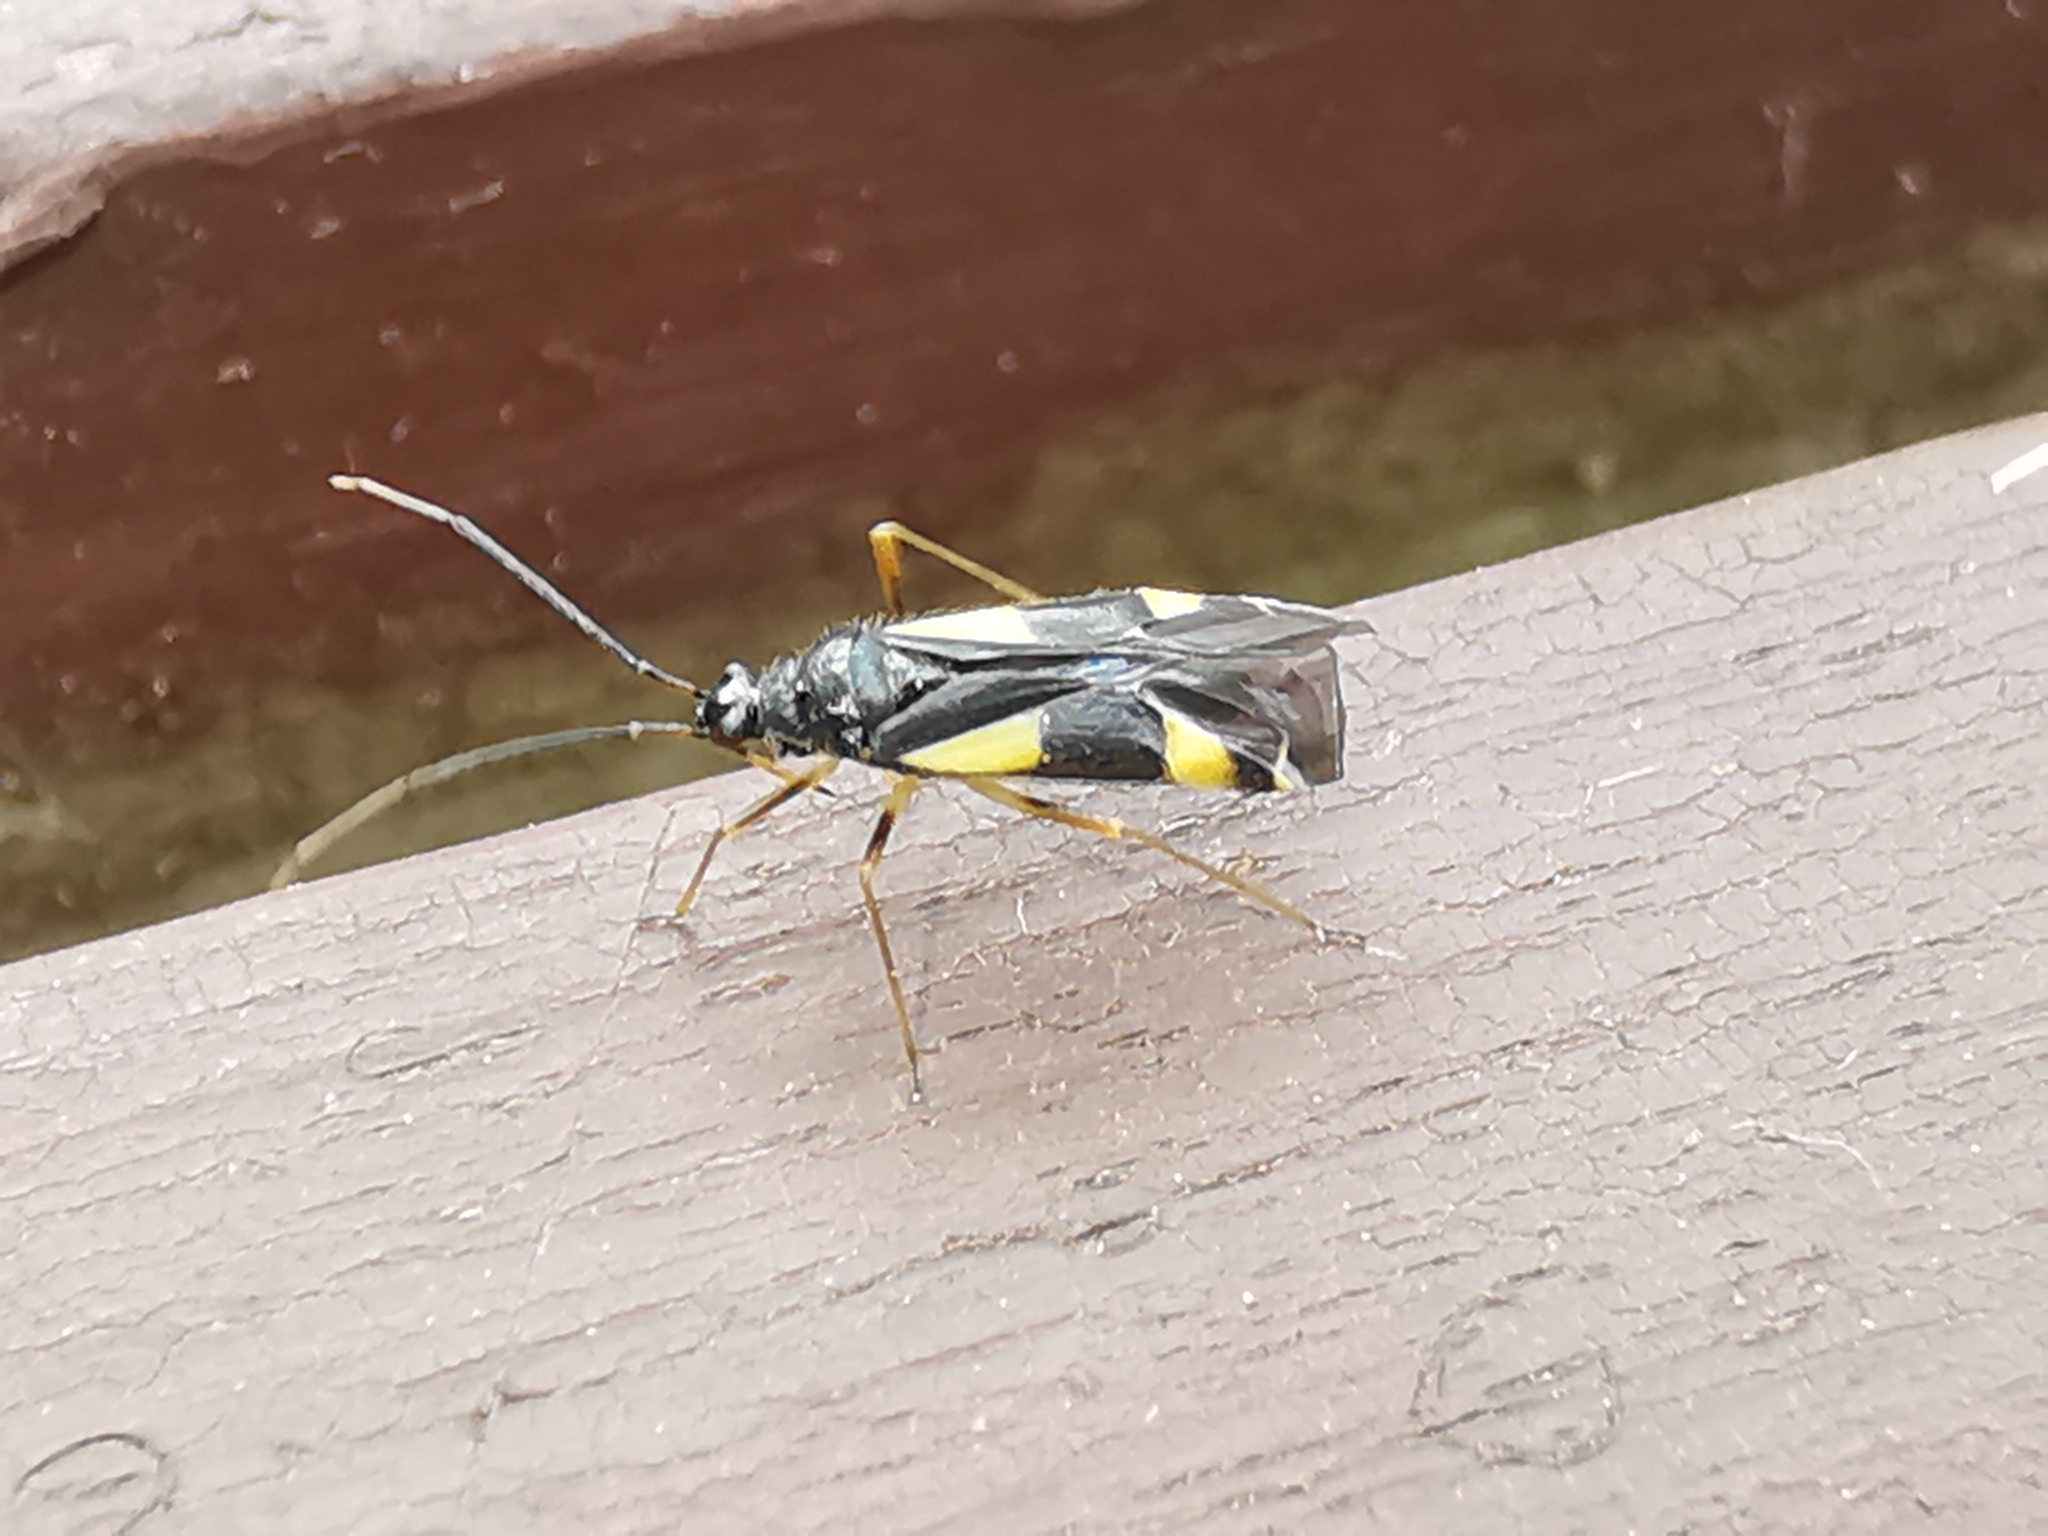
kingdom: Animalia
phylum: Arthropoda
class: Insecta
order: Hemiptera
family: Miridae
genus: Dryophilocoris
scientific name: Dryophilocoris flavoquadrimaculatus
